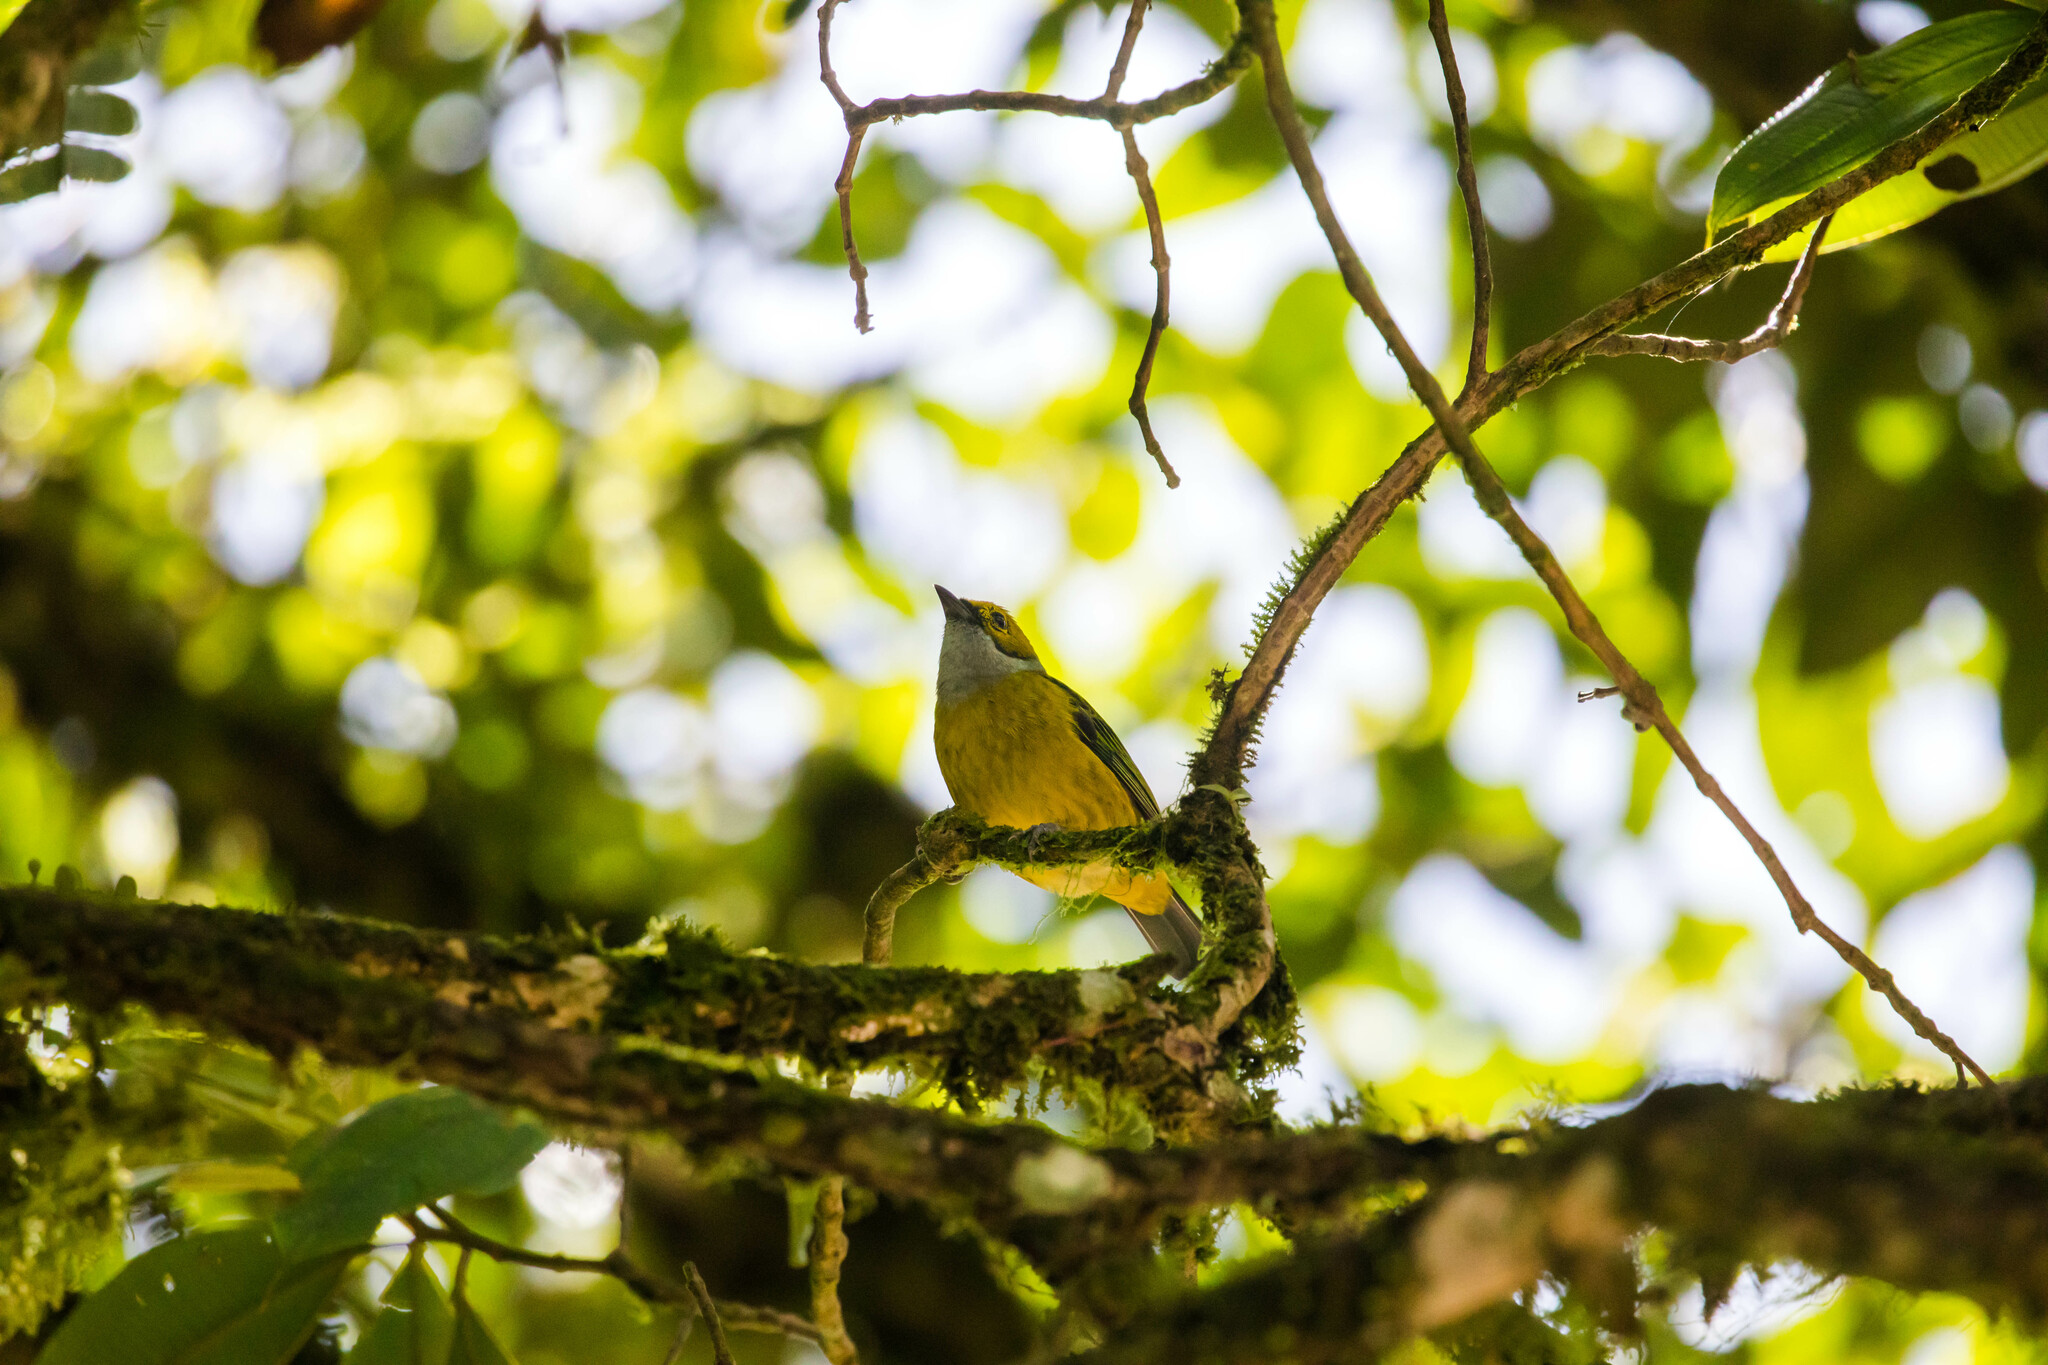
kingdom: Animalia
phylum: Chordata
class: Aves
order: Passeriformes
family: Thraupidae
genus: Tangara
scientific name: Tangara icterocephala
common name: Silver-throated tanager
